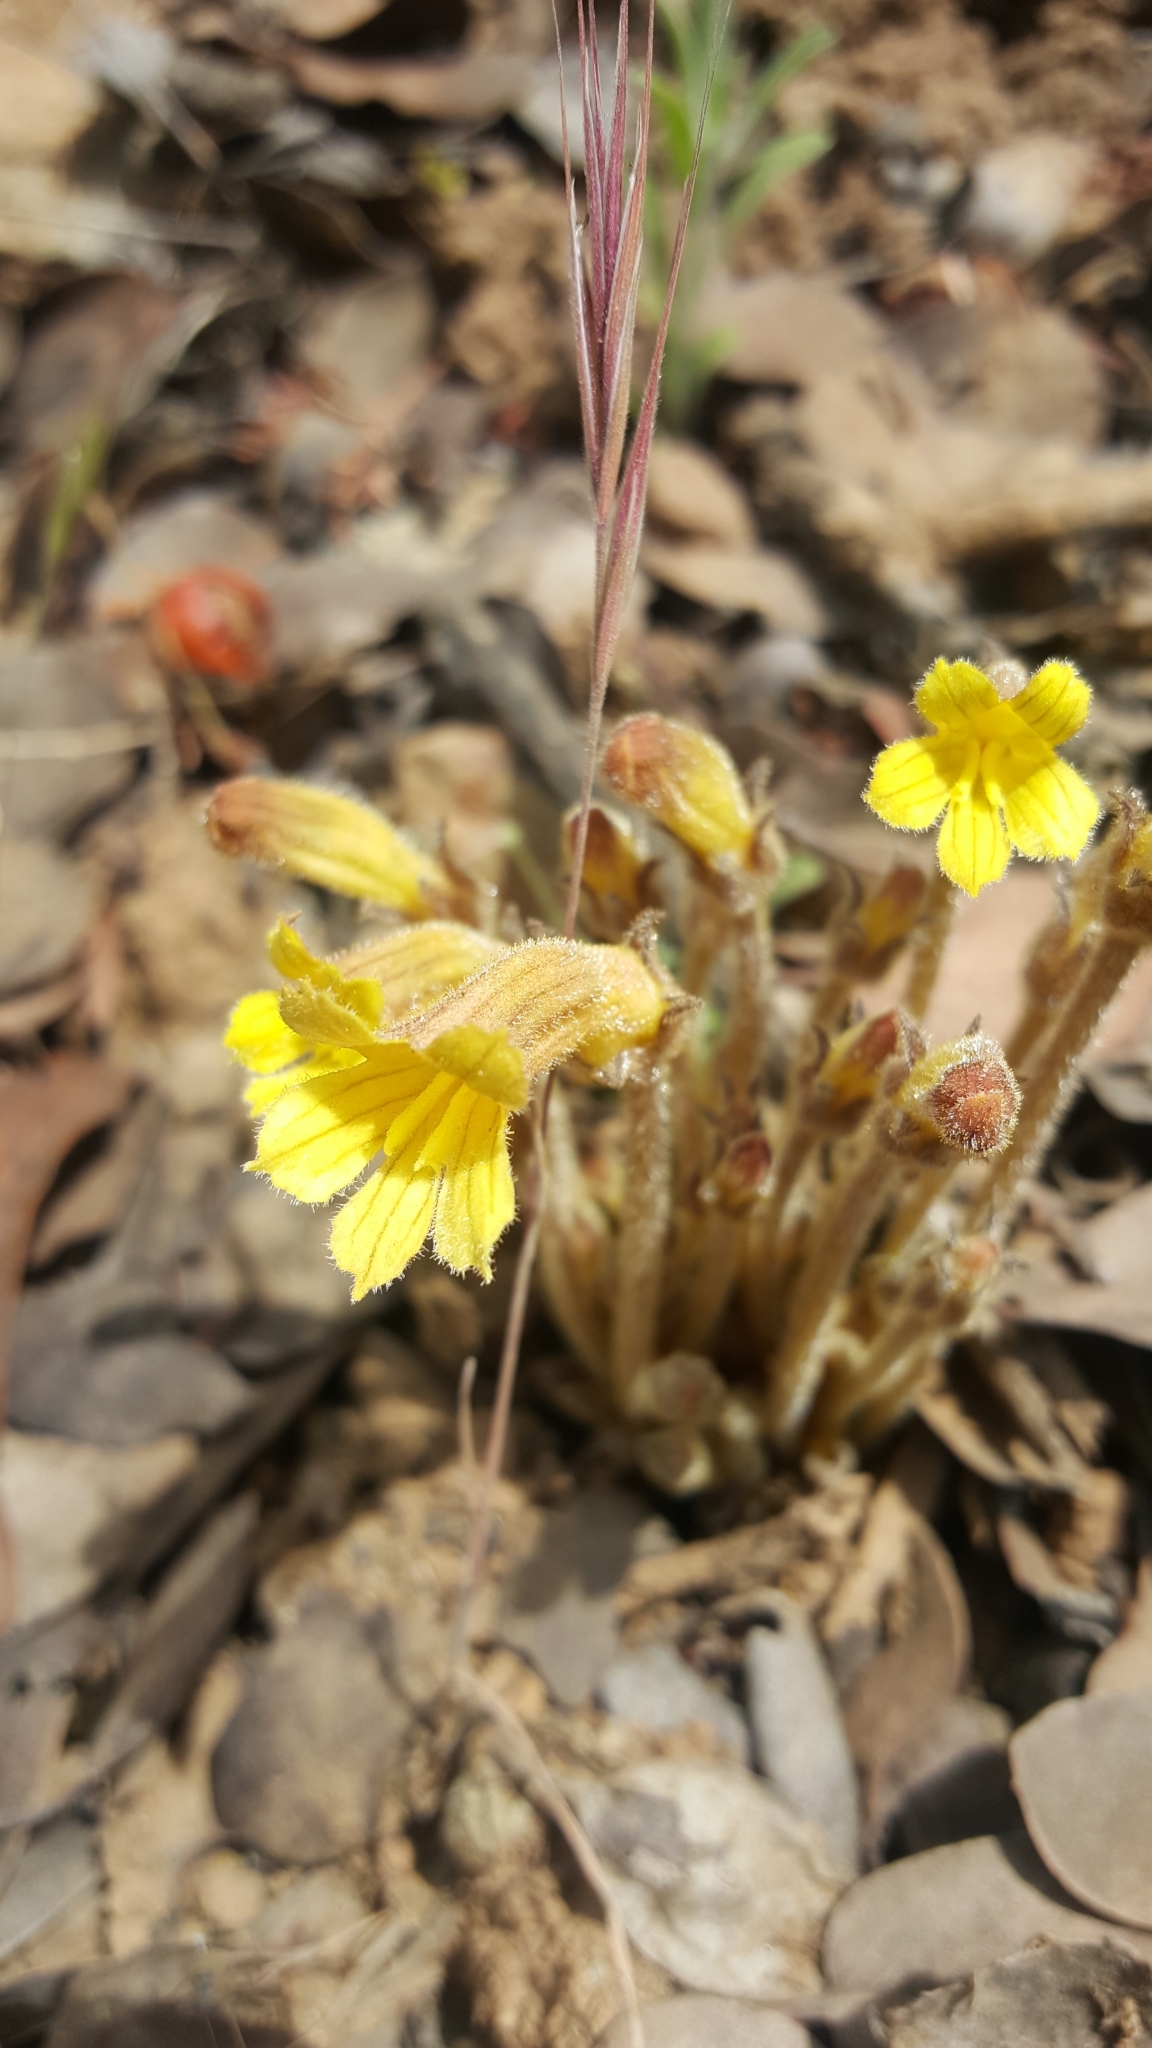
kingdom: Plantae
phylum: Tracheophyta
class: Magnoliopsida
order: Lamiales
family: Orobanchaceae
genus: Aphyllon
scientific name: Aphyllon franciscanum
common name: San francisco broomrape
